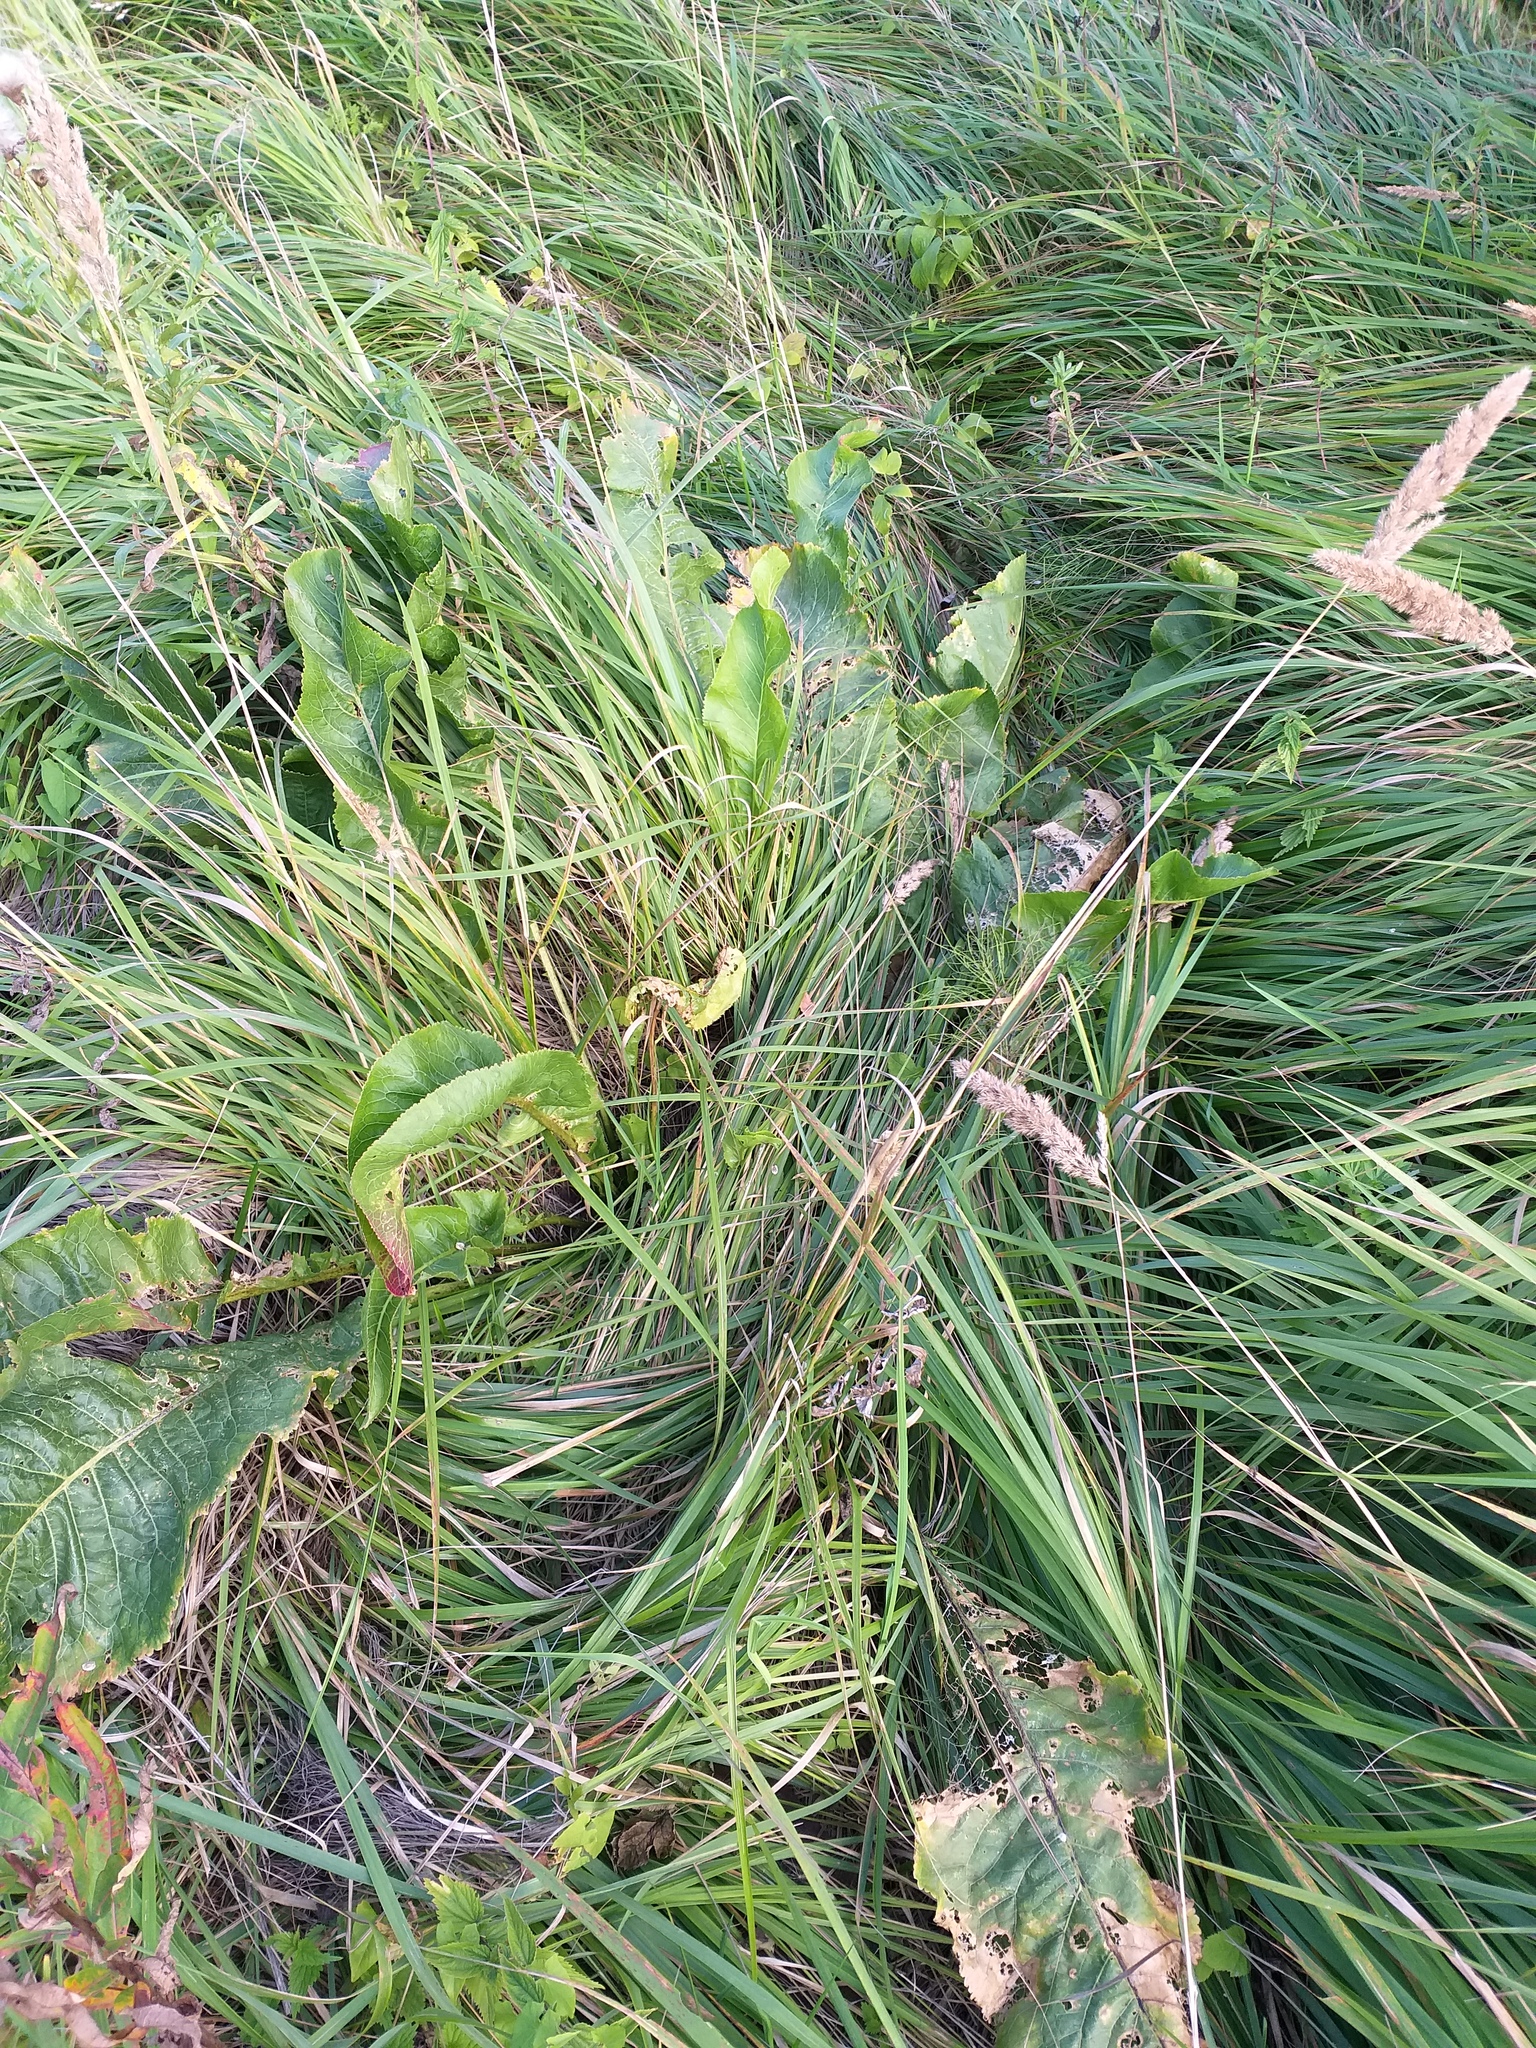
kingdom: Plantae
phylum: Tracheophyta
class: Magnoliopsida
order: Brassicales
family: Brassicaceae
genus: Armoracia
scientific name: Armoracia rusticana
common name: Horseradish
